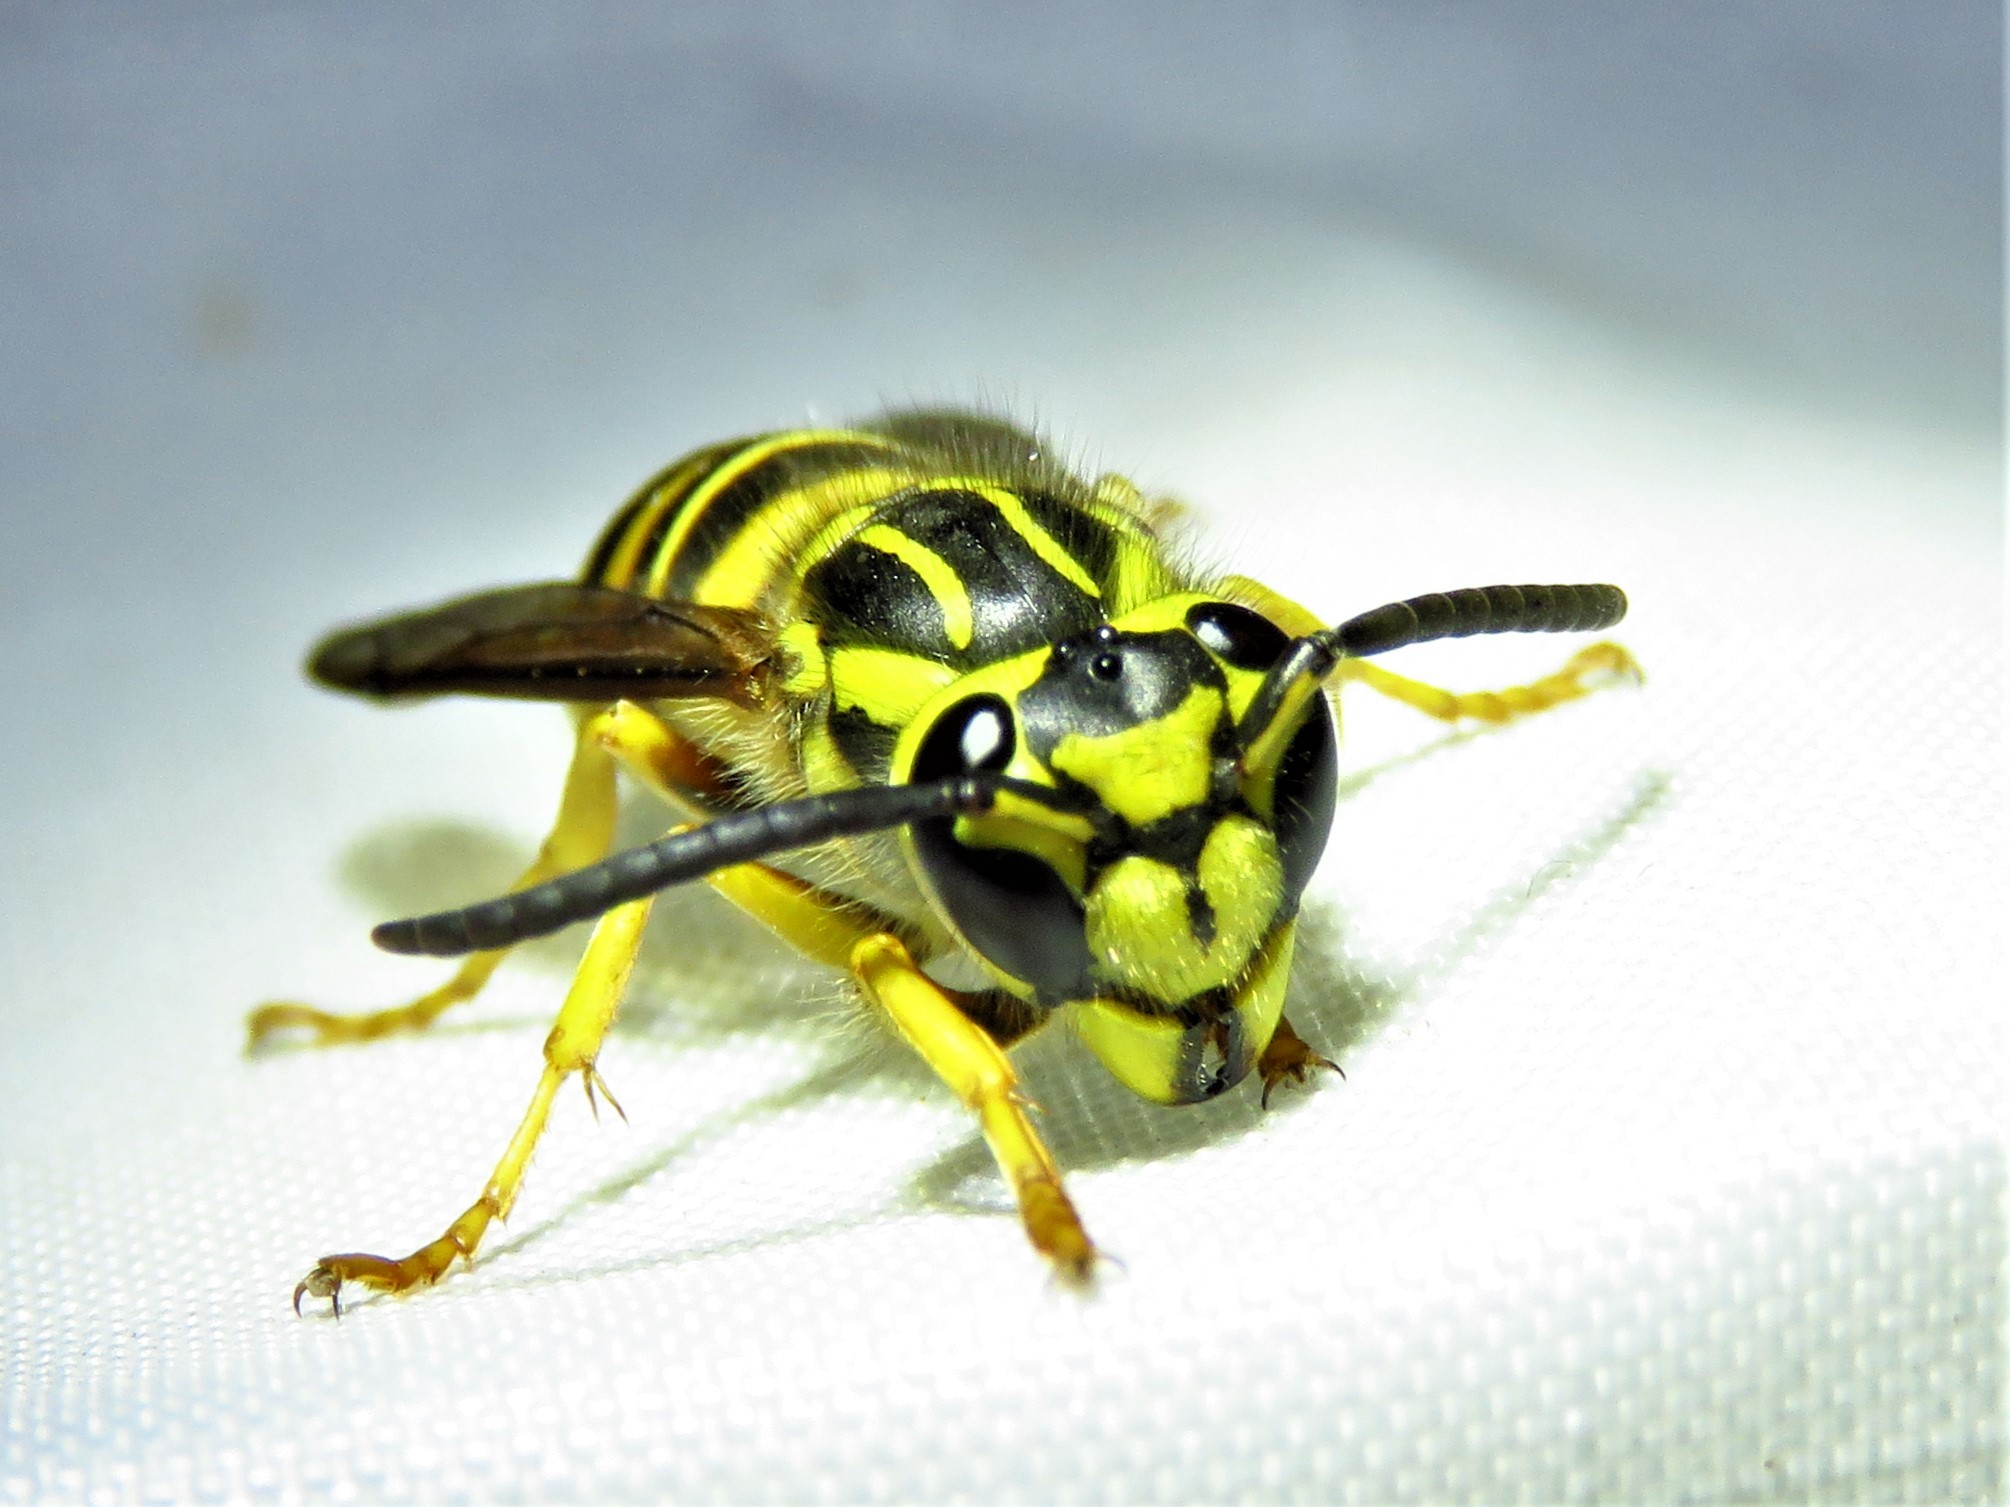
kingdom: Animalia
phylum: Arthropoda
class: Insecta
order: Hymenoptera
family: Vespidae
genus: Vespula
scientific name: Vespula squamosa
